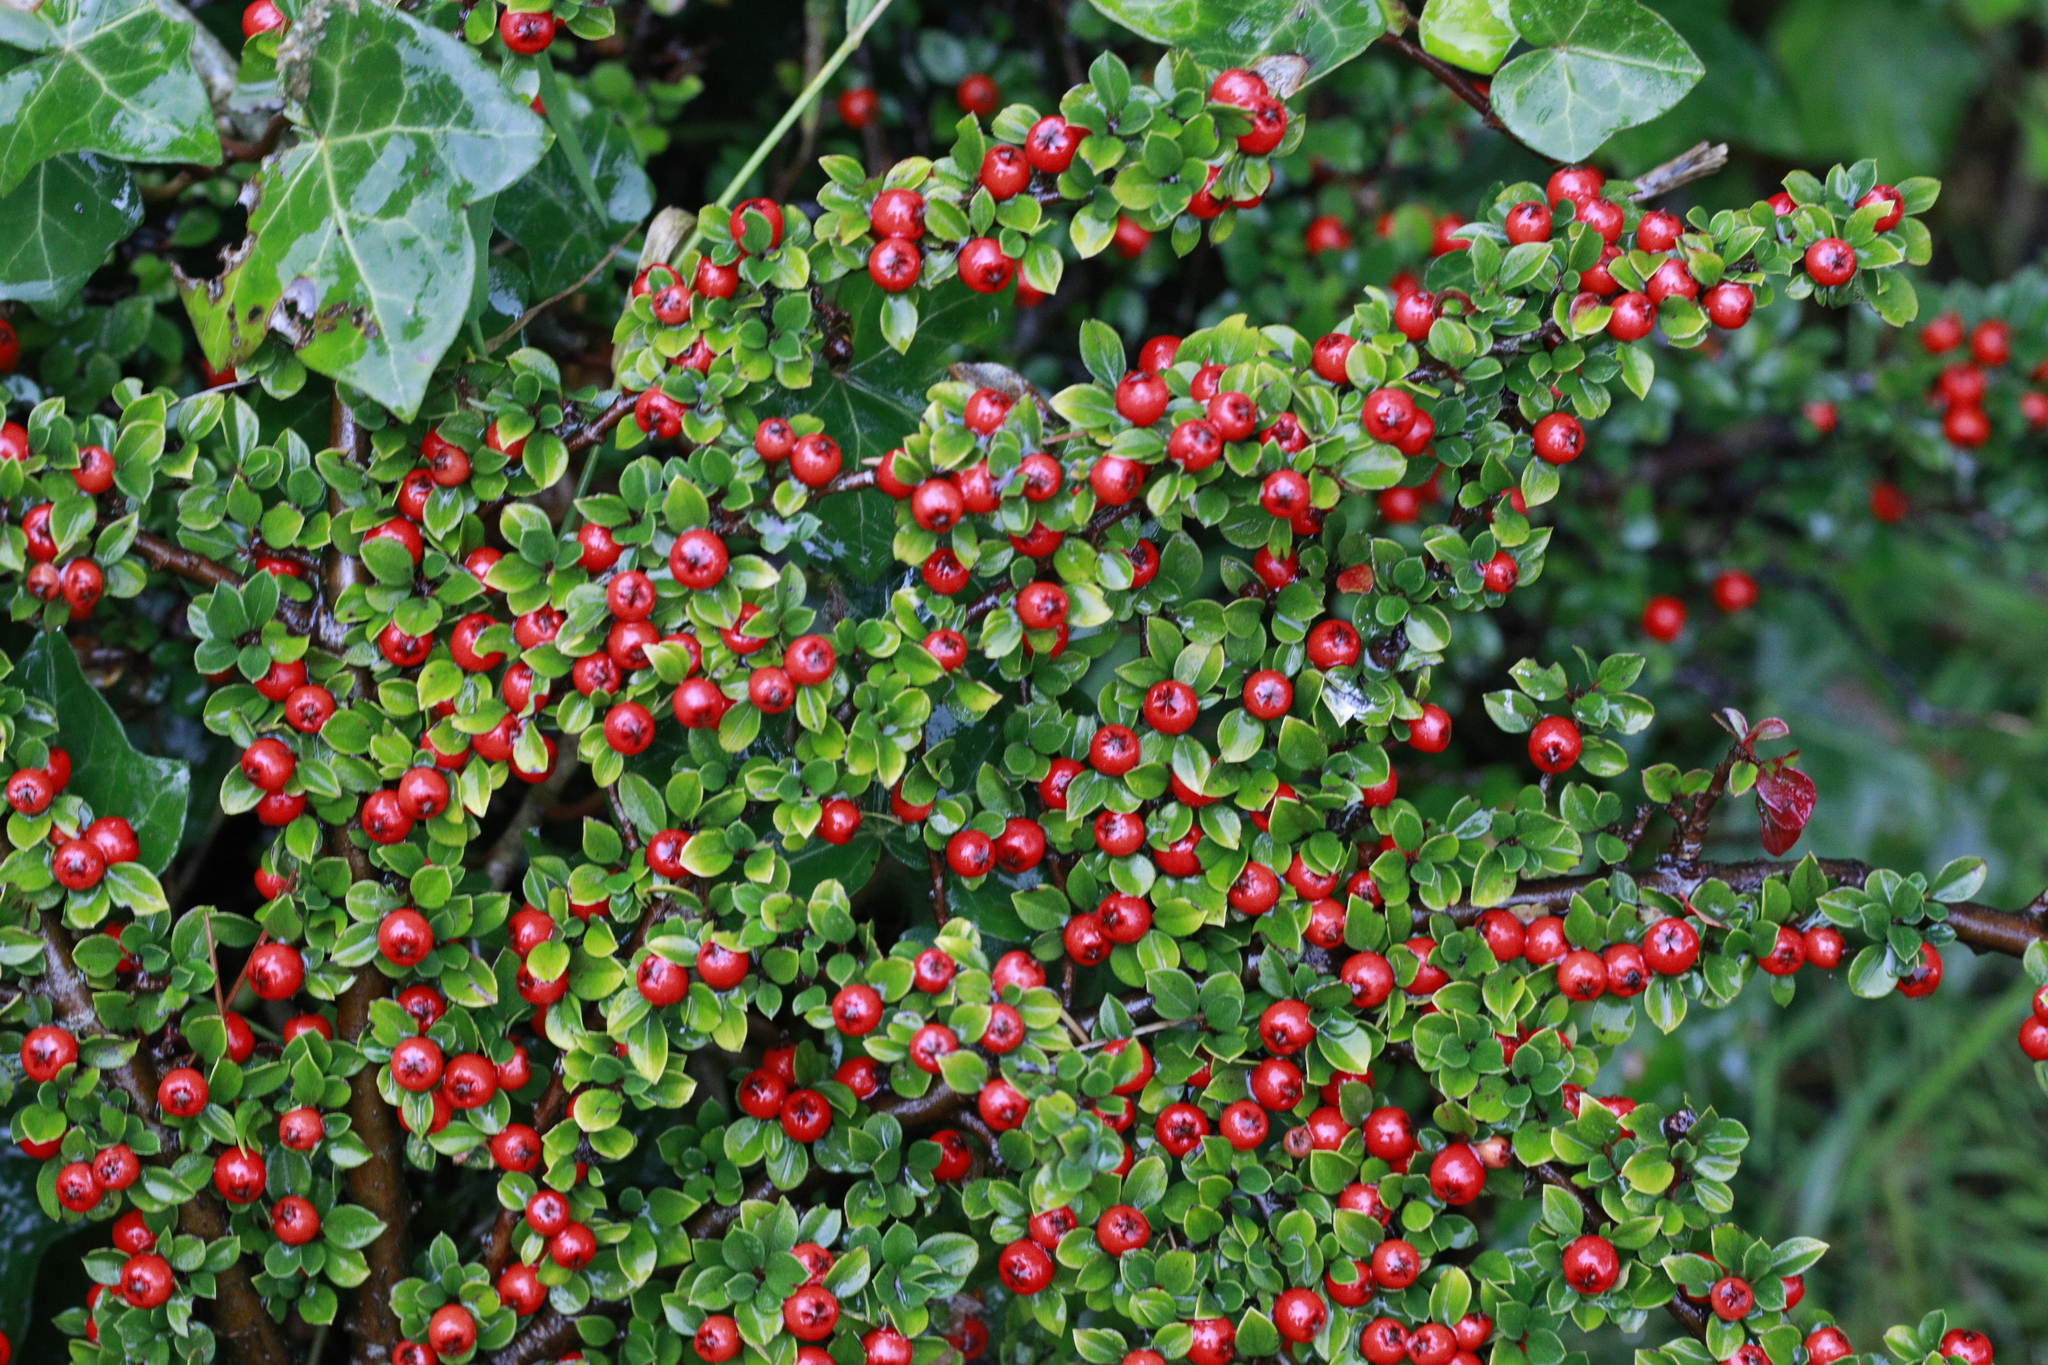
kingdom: Plantae
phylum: Tracheophyta
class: Magnoliopsida
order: Rosales
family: Rosaceae
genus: Cotoneaster
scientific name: Cotoneaster horizontalis
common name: Wall cotoneaster
